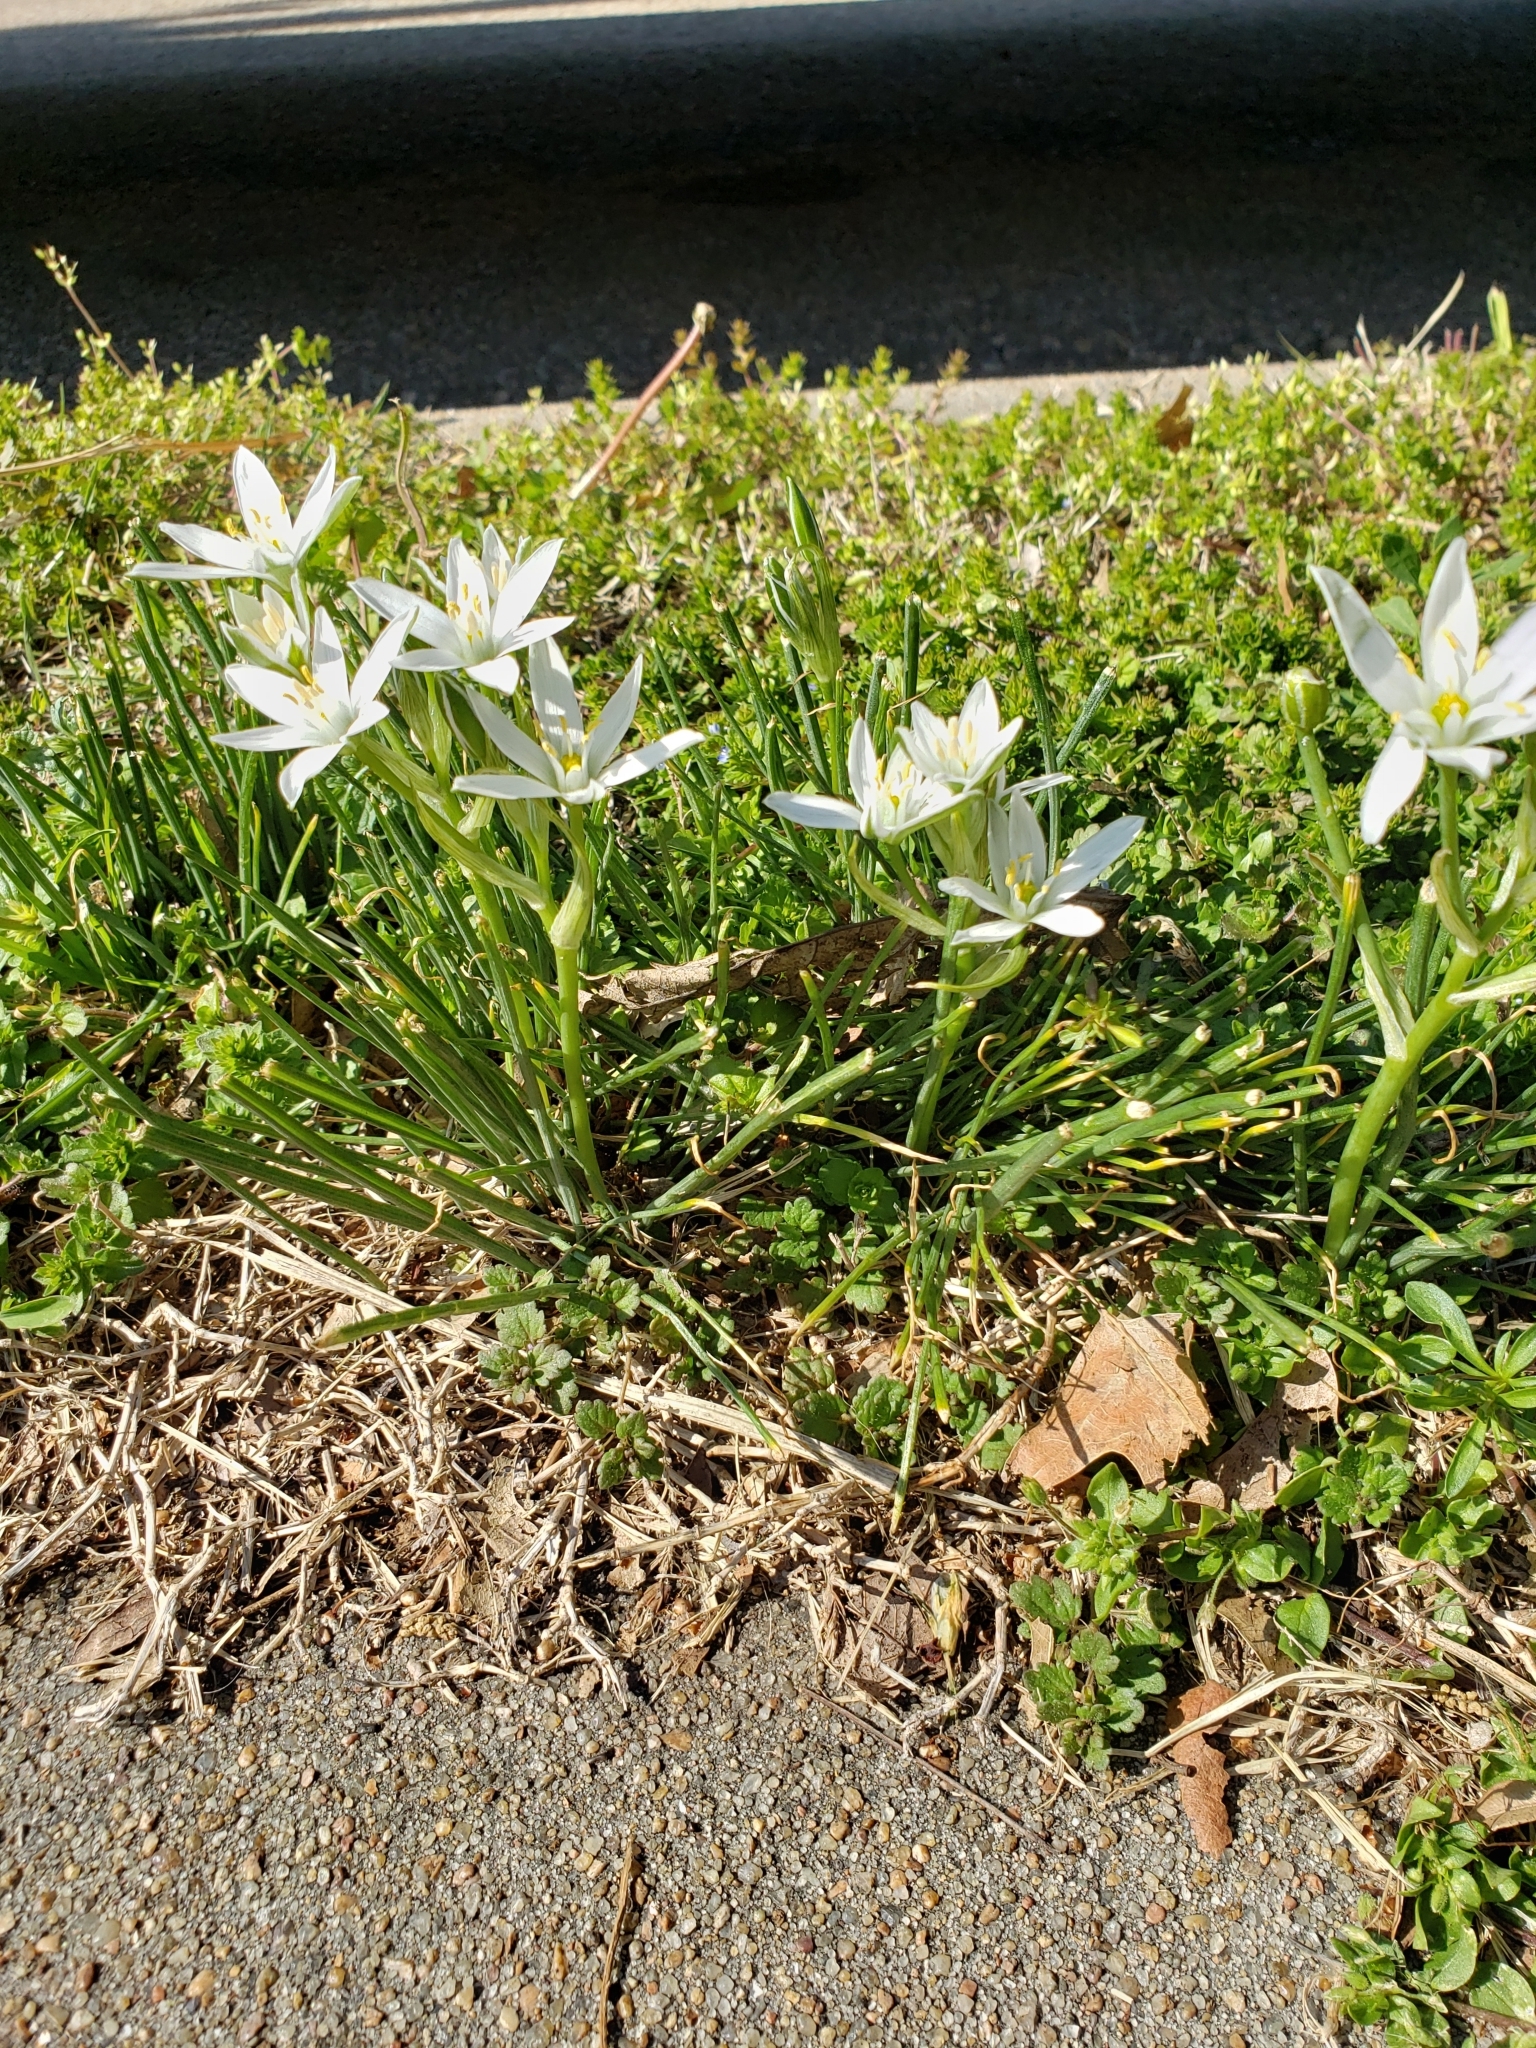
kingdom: Plantae
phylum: Tracheophyta
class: Liliopsida
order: Asparagales
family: Asparagaceae
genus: Ornithogalum
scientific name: Ornithogalum umbellatum
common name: Garden star-of-bethlehem
